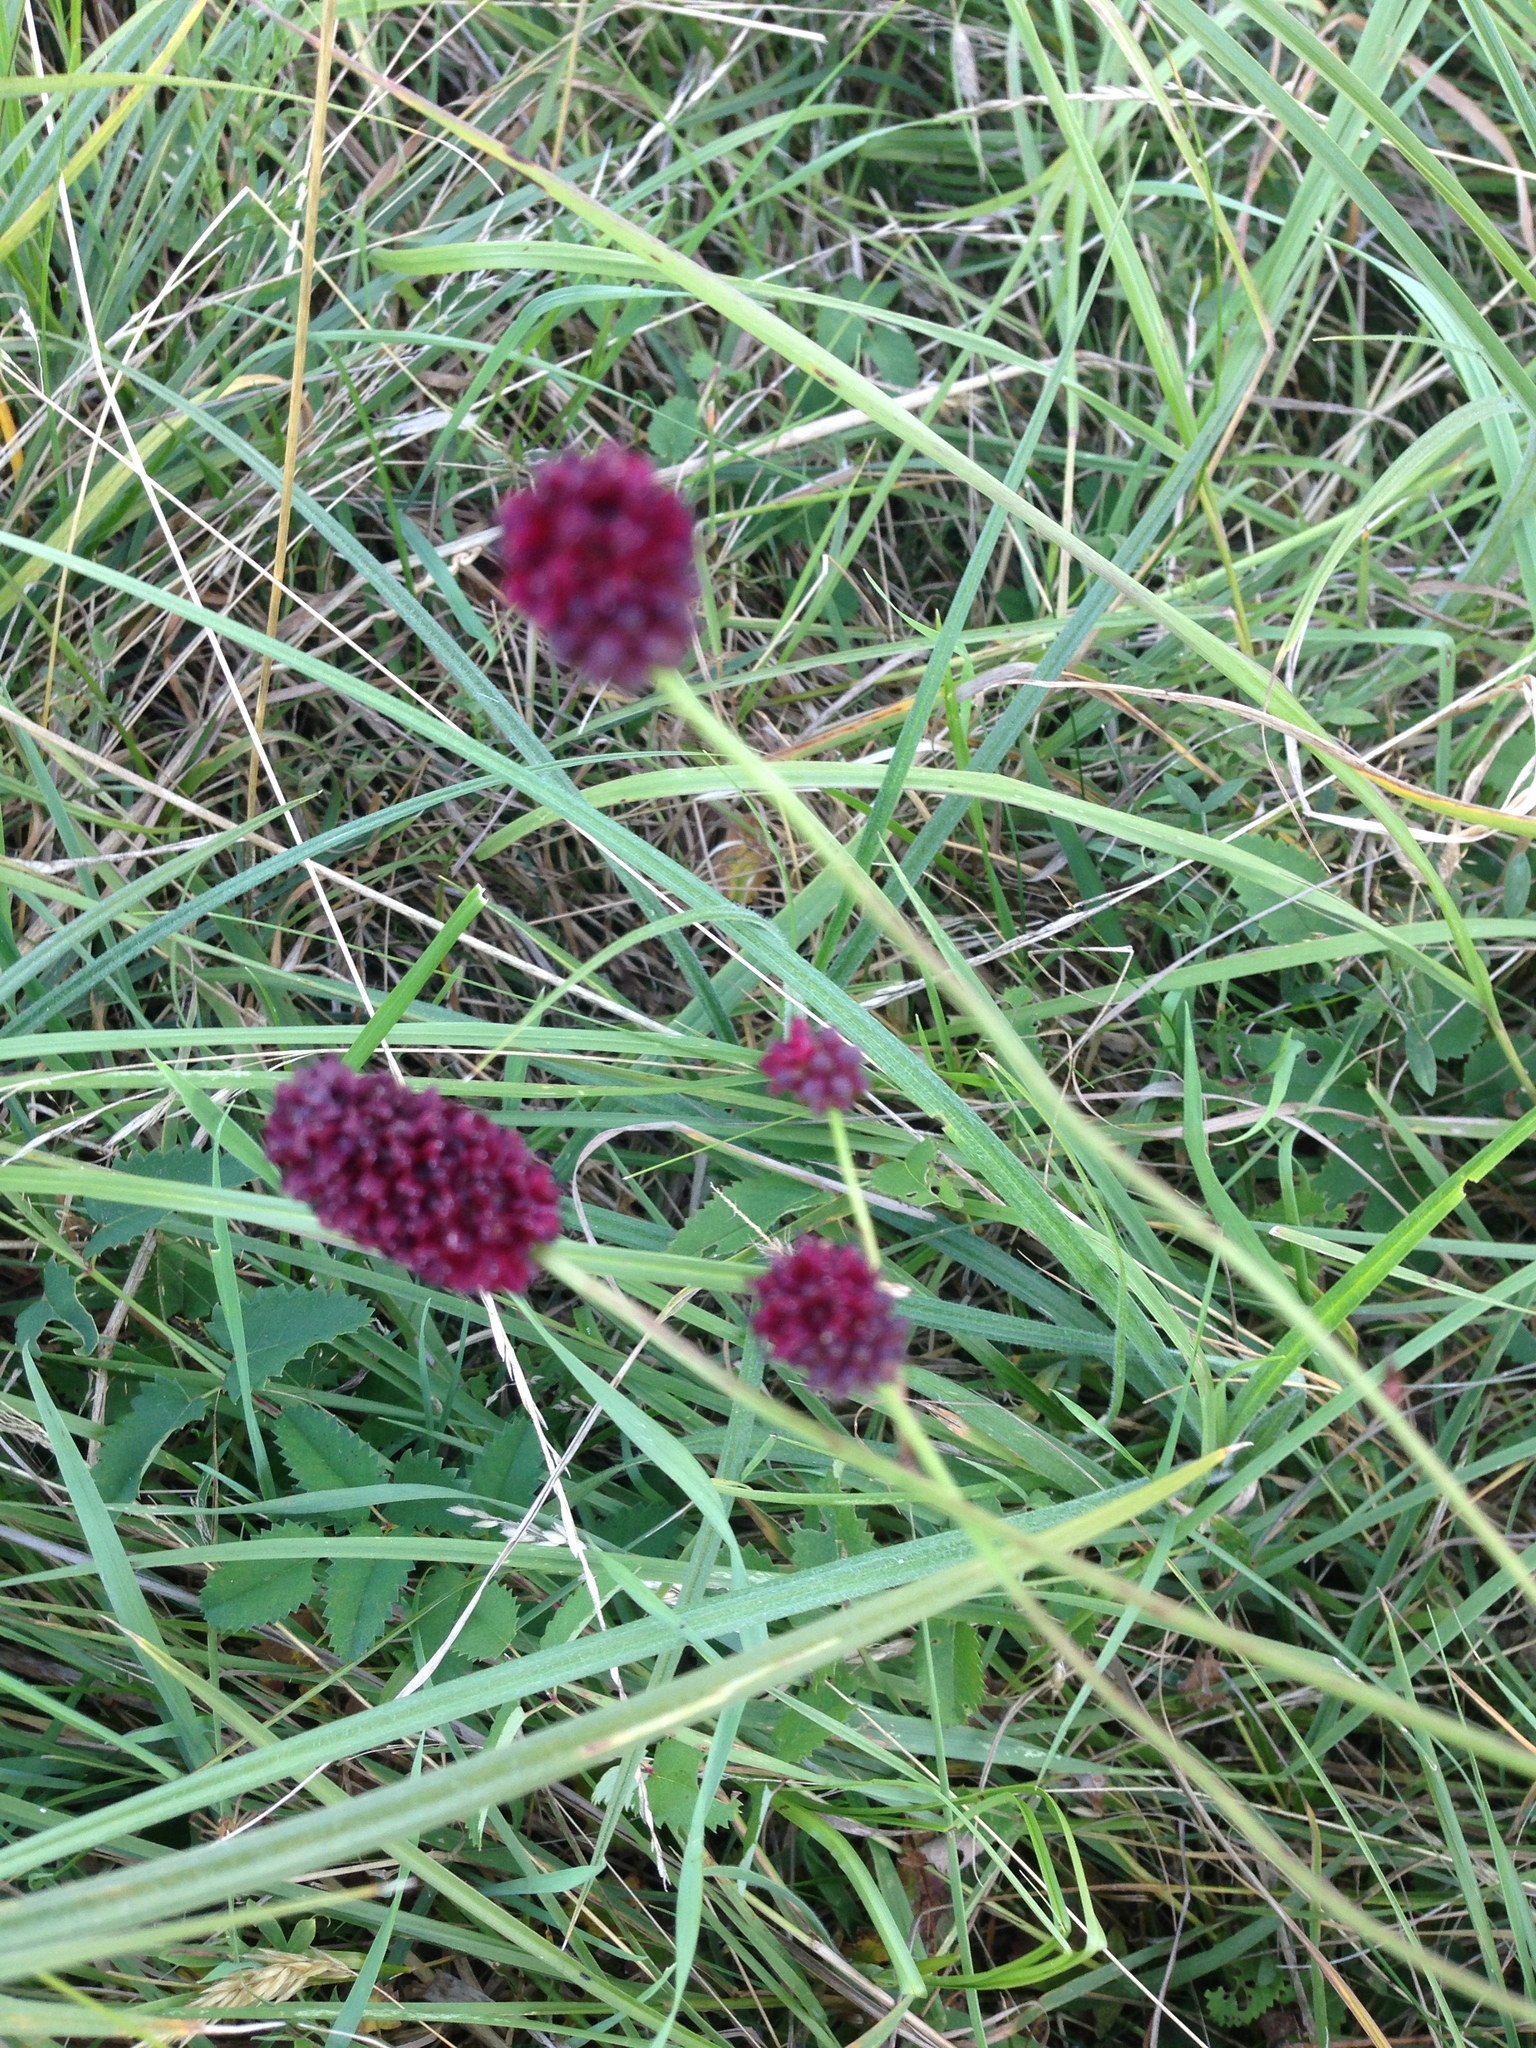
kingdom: Plantae
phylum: Tracheophyta
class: Magnoliopsida
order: Rosales
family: Rosaceae
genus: Sanguisorba
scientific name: Sanguisorba officinalis
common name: Great burnet
